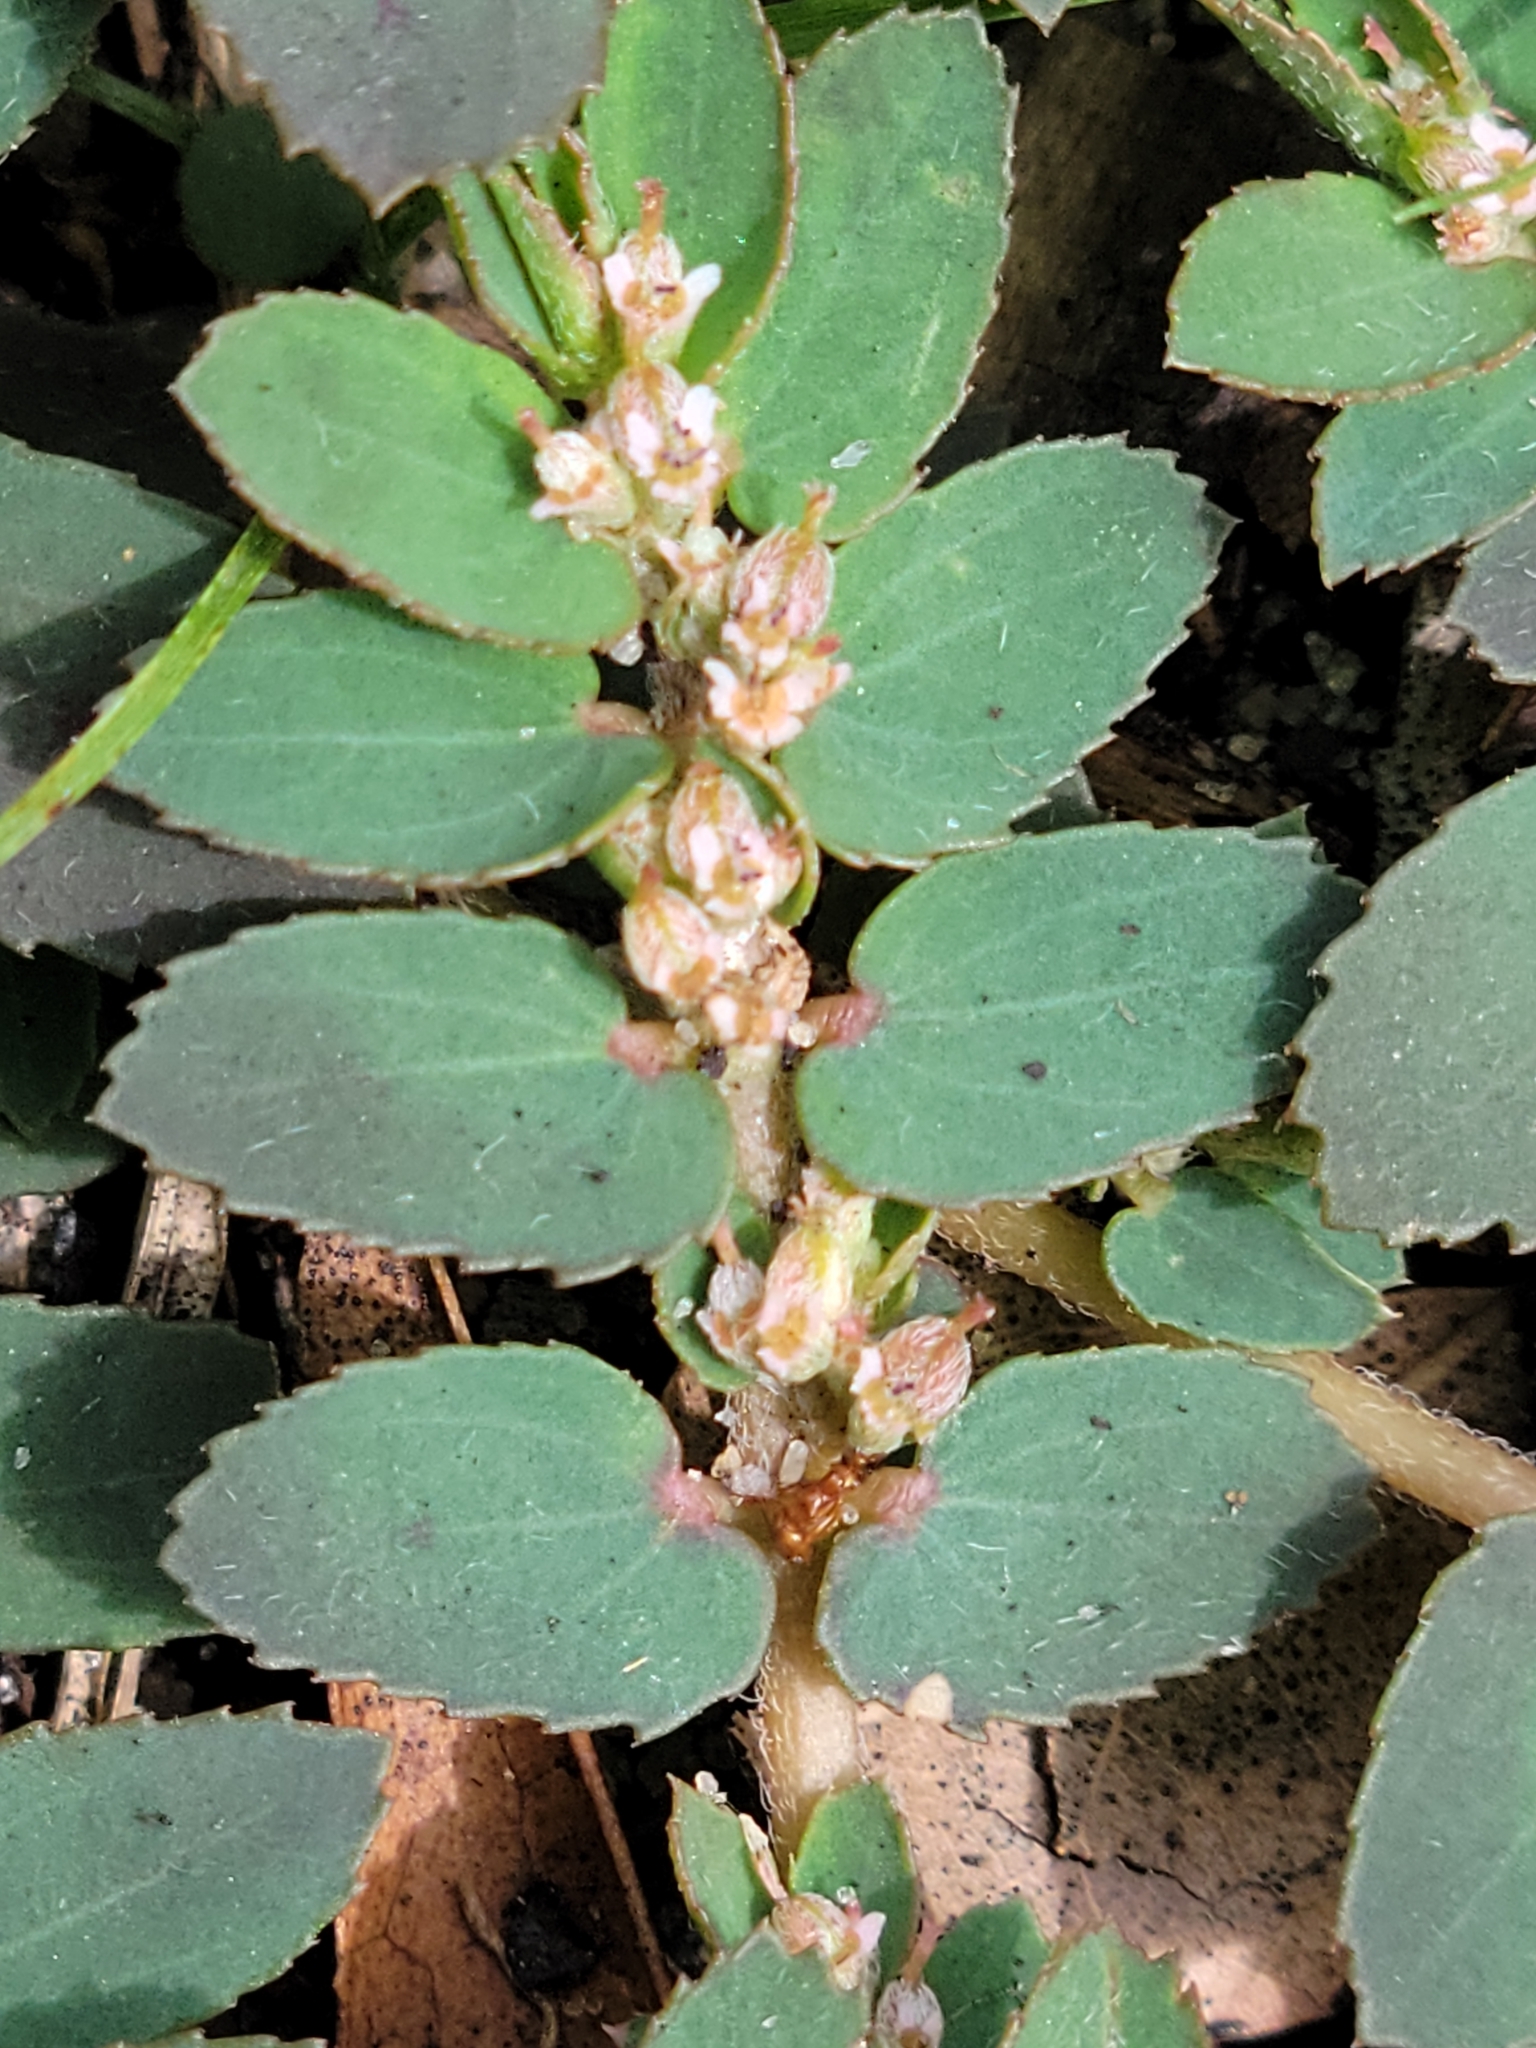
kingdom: Plantae
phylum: Tracheophyta
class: Magnoliopsida
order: Malpighiales
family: Euphorbiaceae
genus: Euphorbia
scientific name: Euphorbia thymifolia
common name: Gulf sandmat
